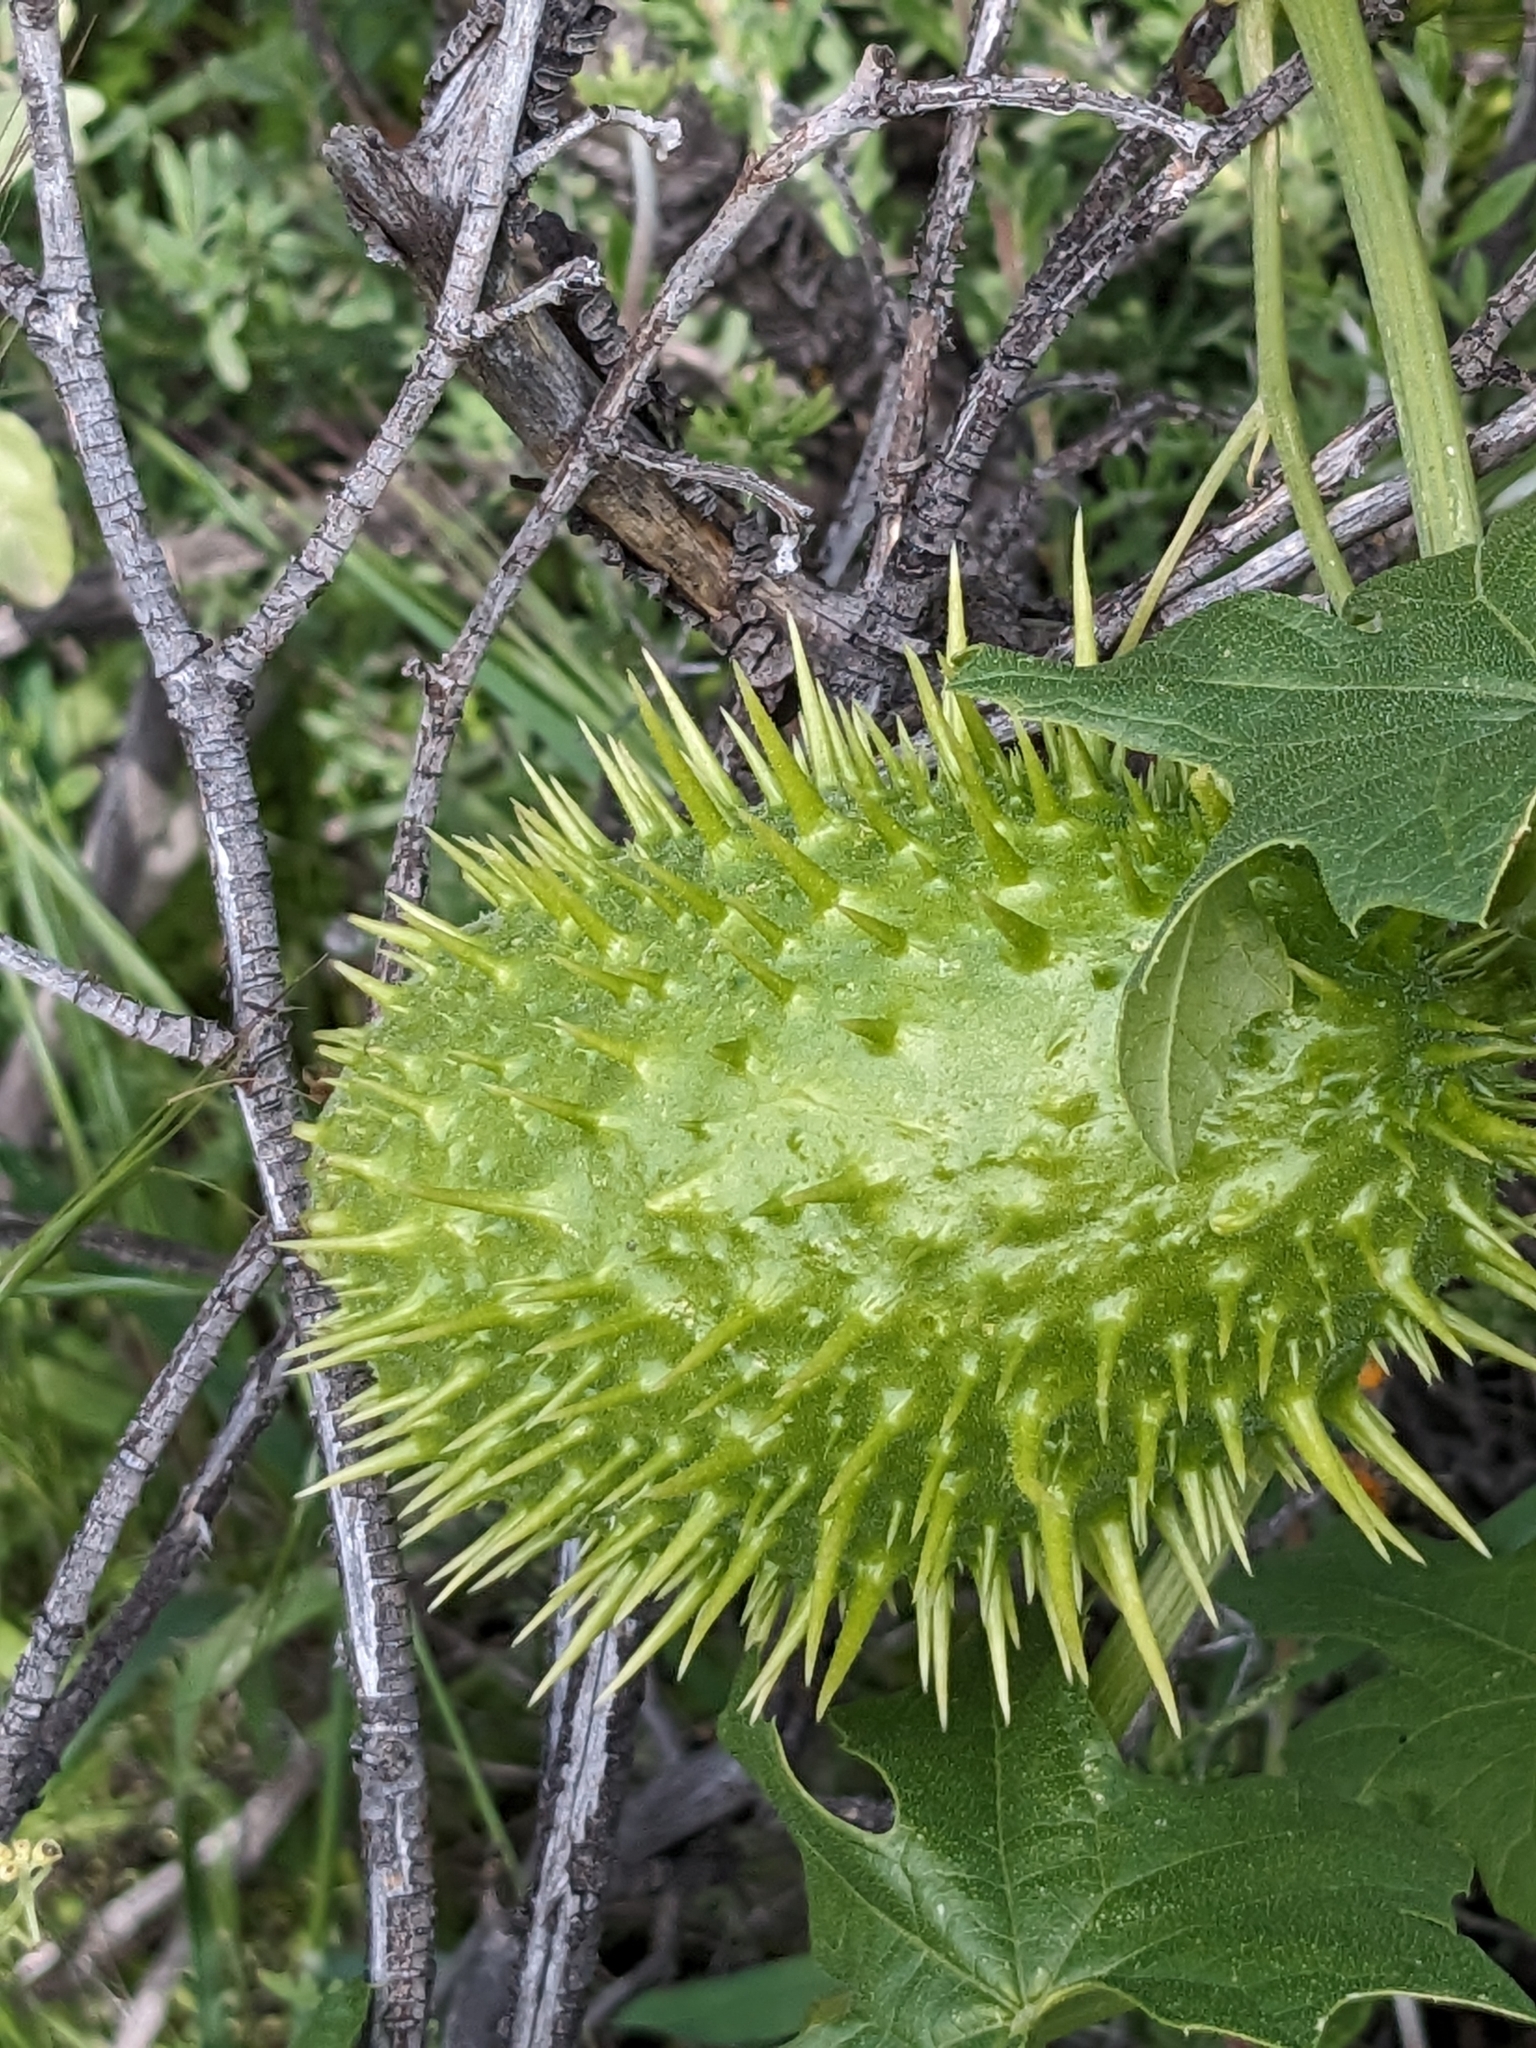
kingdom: Plantae
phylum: Tracheophyta
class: Magnoliopsida
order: Cucurbitales
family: Cucurbitaceae
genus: Marah
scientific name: Marah macrocarpa
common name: Cucamonga manroot
